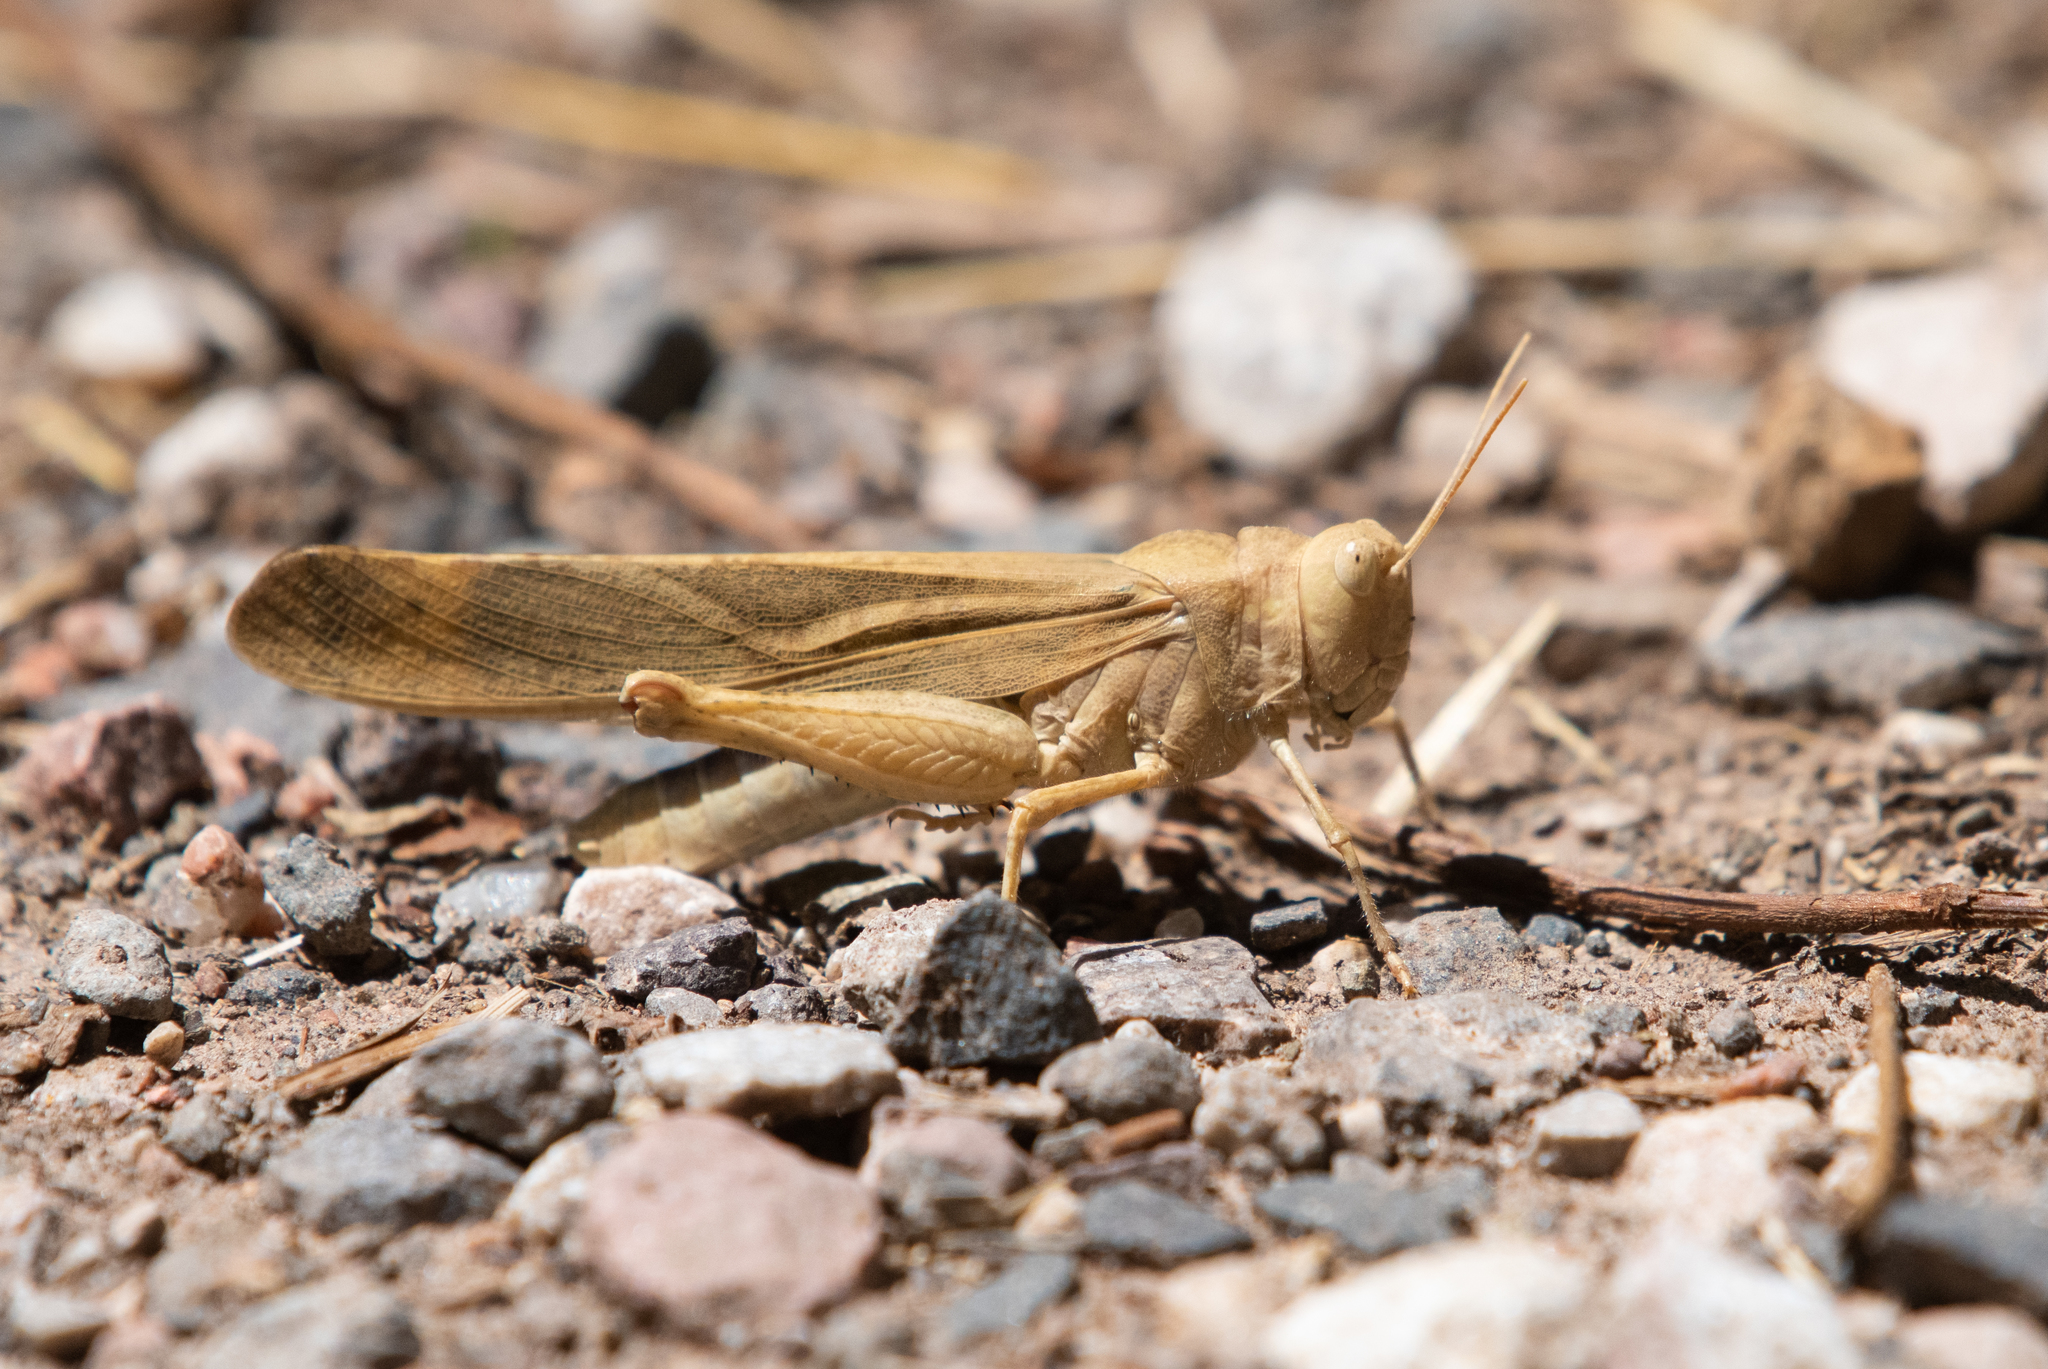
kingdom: Animalia
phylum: Arthropoda
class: Insecta
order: Orthoptera
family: Acrididae
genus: Dissosteira
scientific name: Dissosteira carolina
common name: Carolina grasshopper
